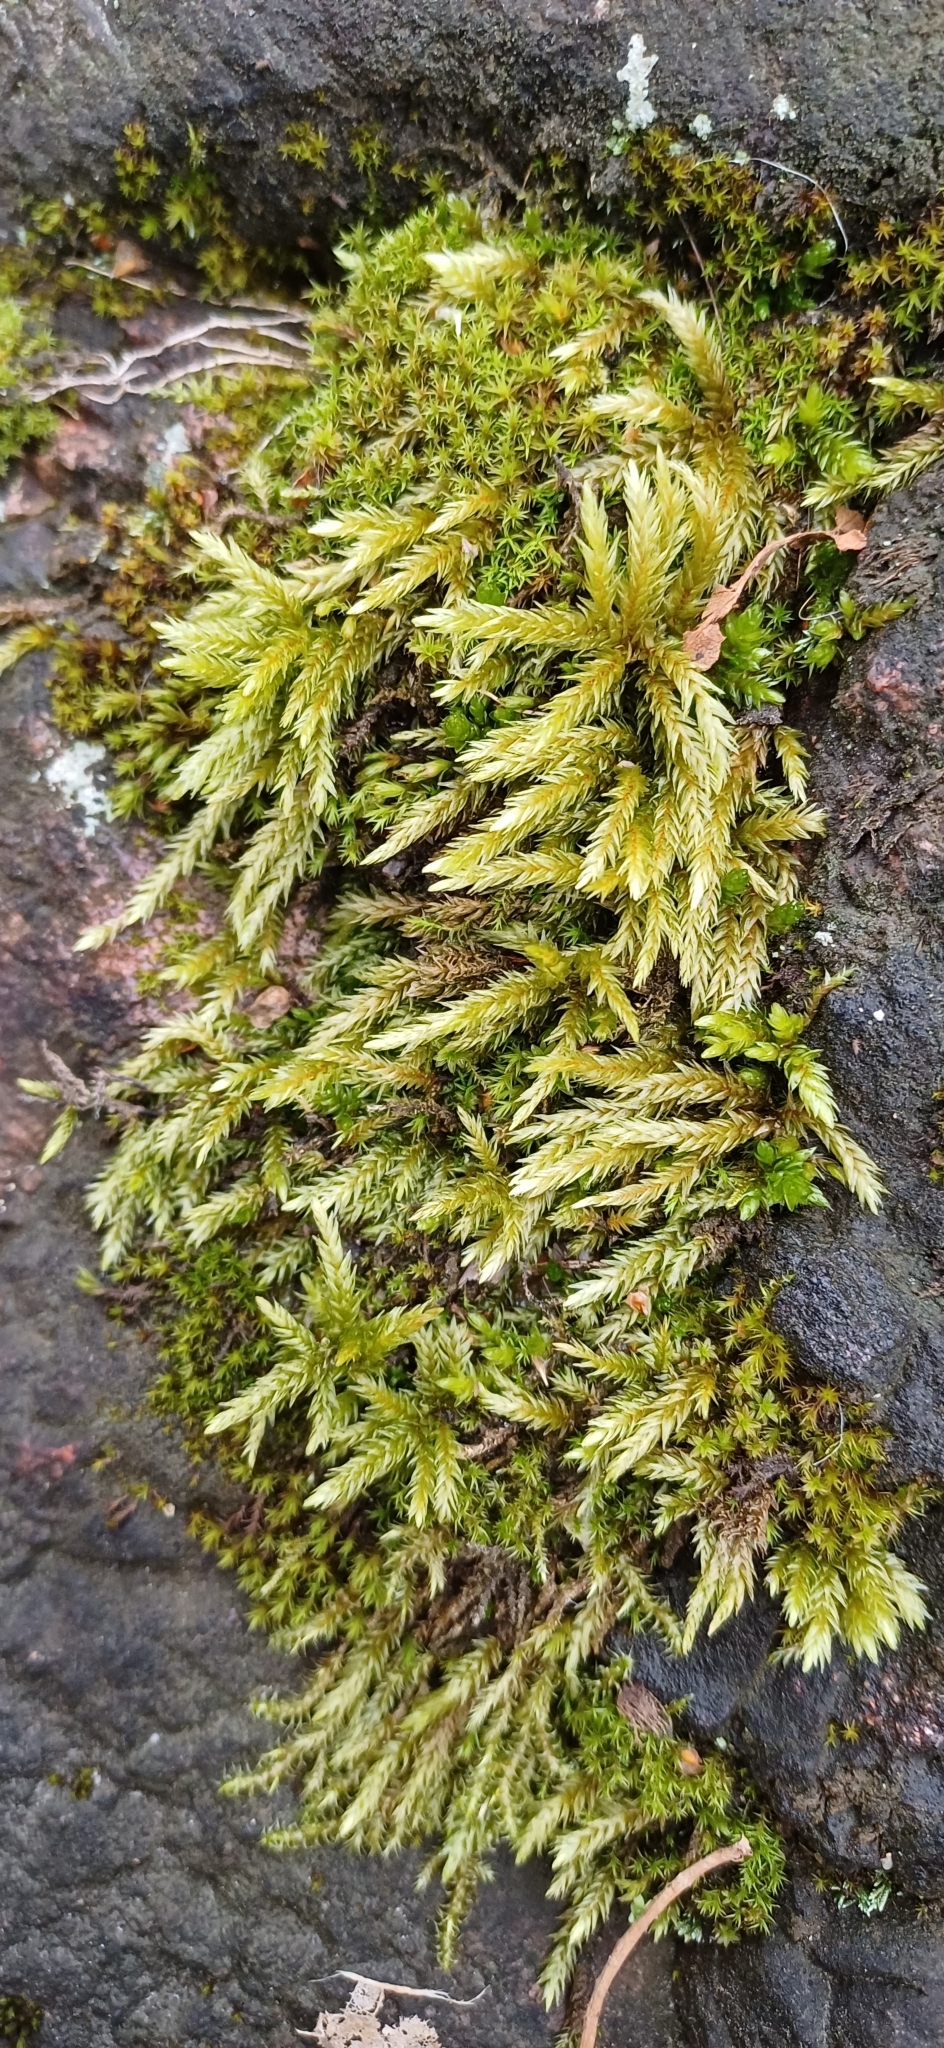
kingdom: Plantae
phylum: Bryophyta
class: Bryopsida
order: Hypnales
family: Climaciaceae
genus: Climacium
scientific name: Climacium dendroides
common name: Northern tree moss
